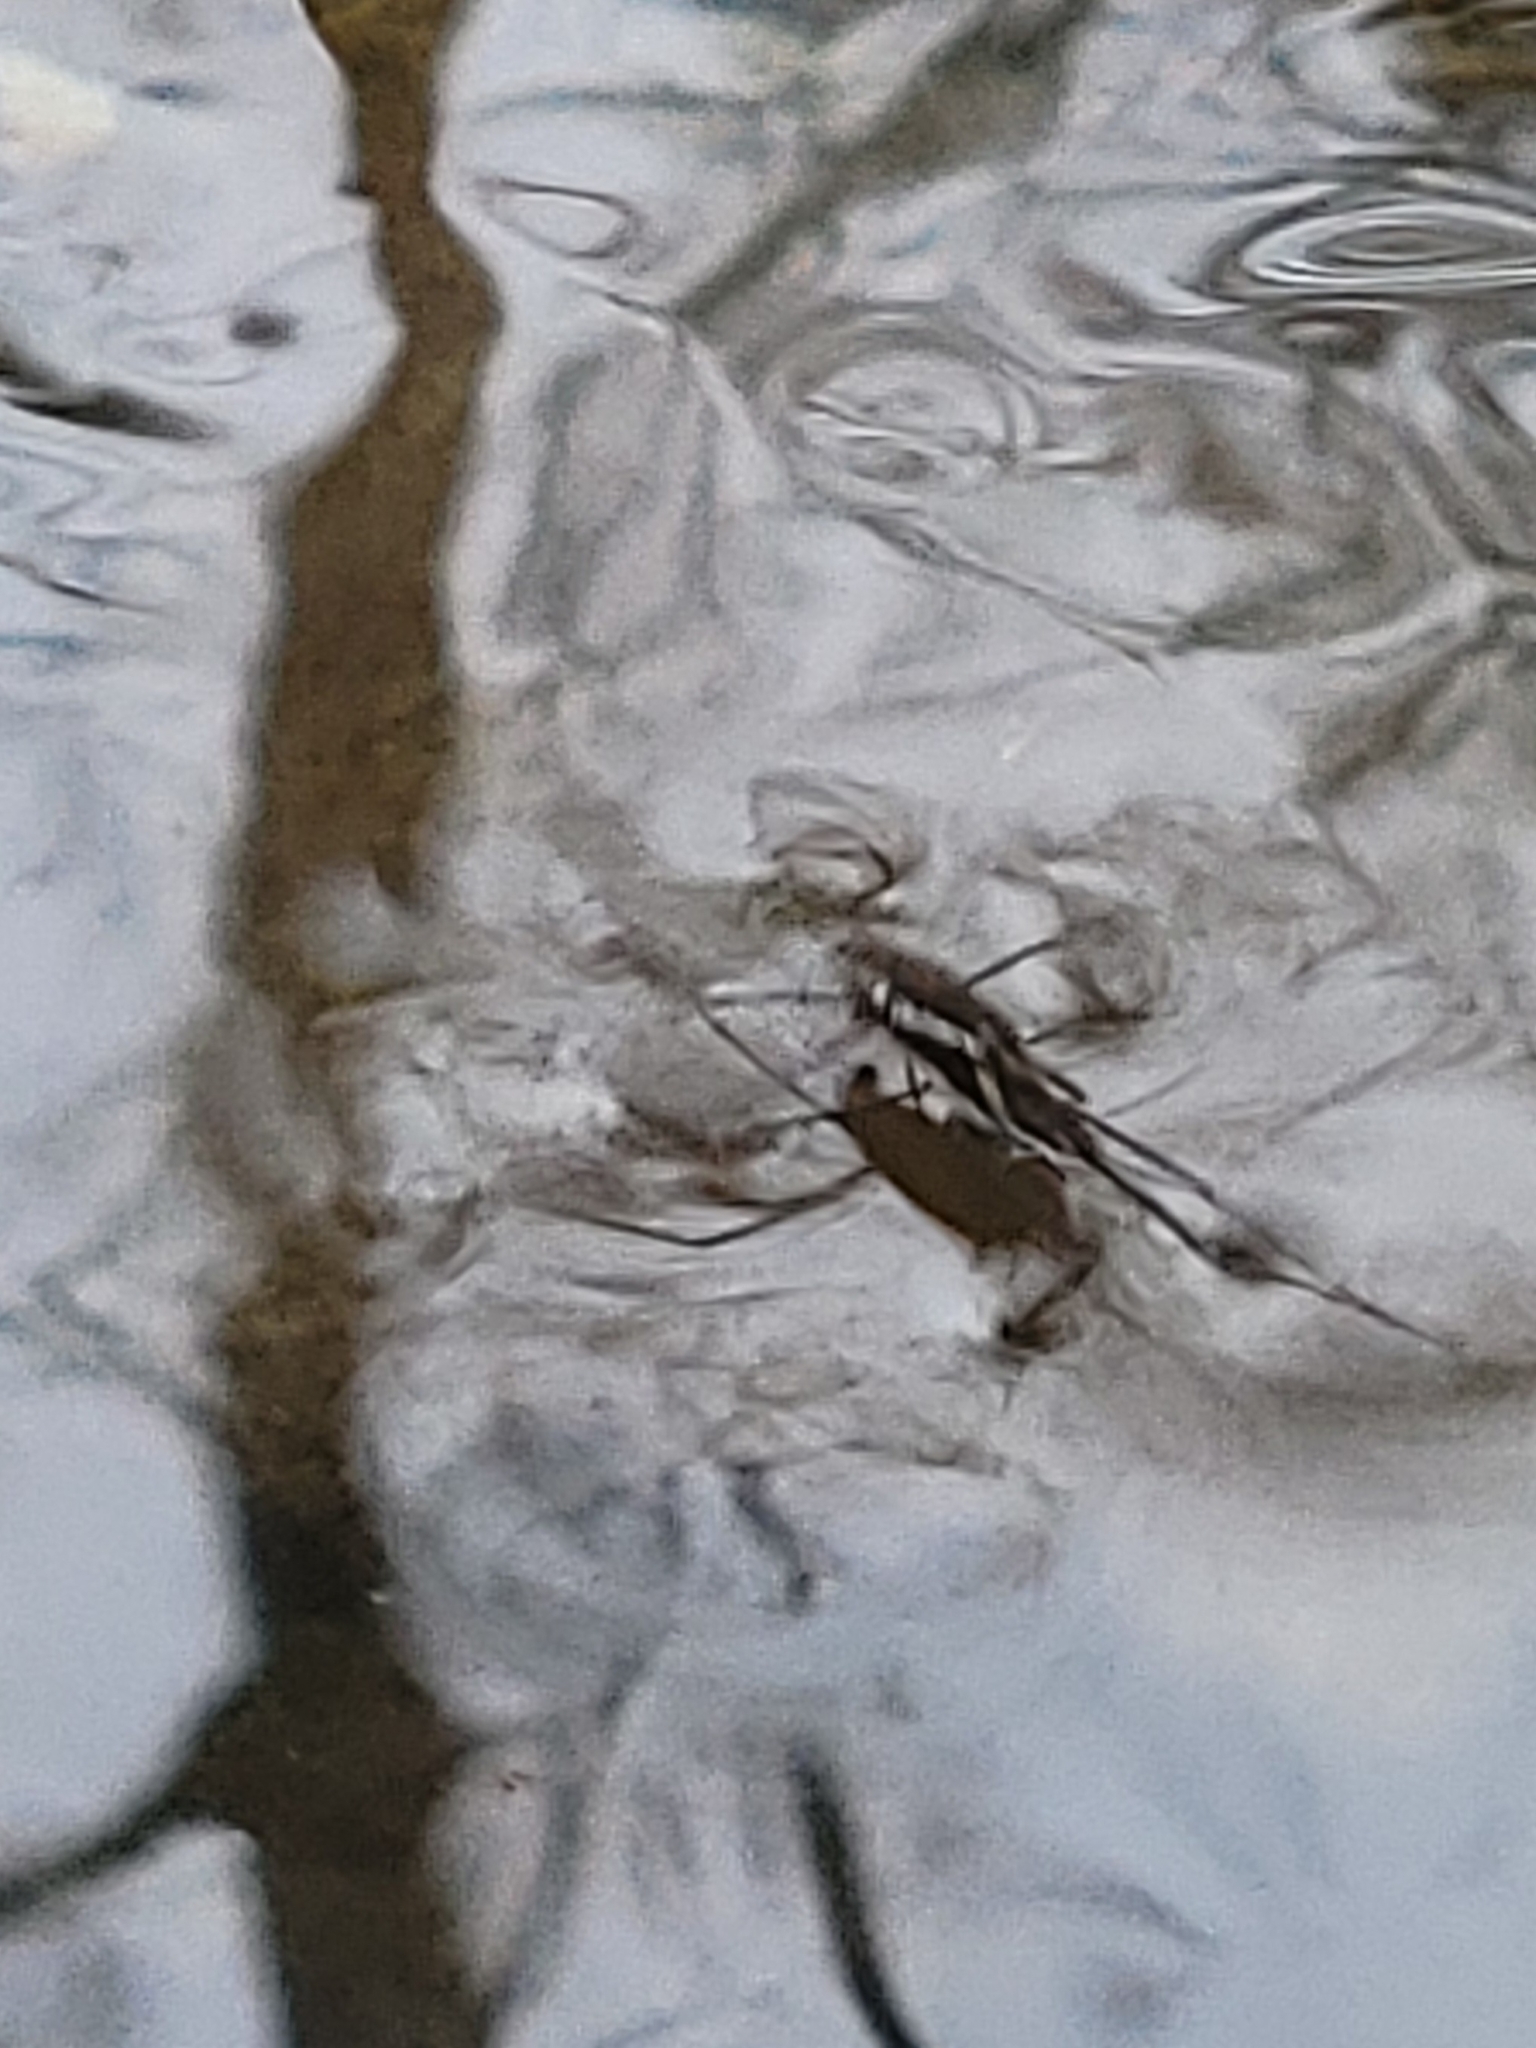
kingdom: Animalia
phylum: Arthropoda
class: Insecta
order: Hemiptera
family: Gerridae
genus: Aquarius
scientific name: Aquarius
